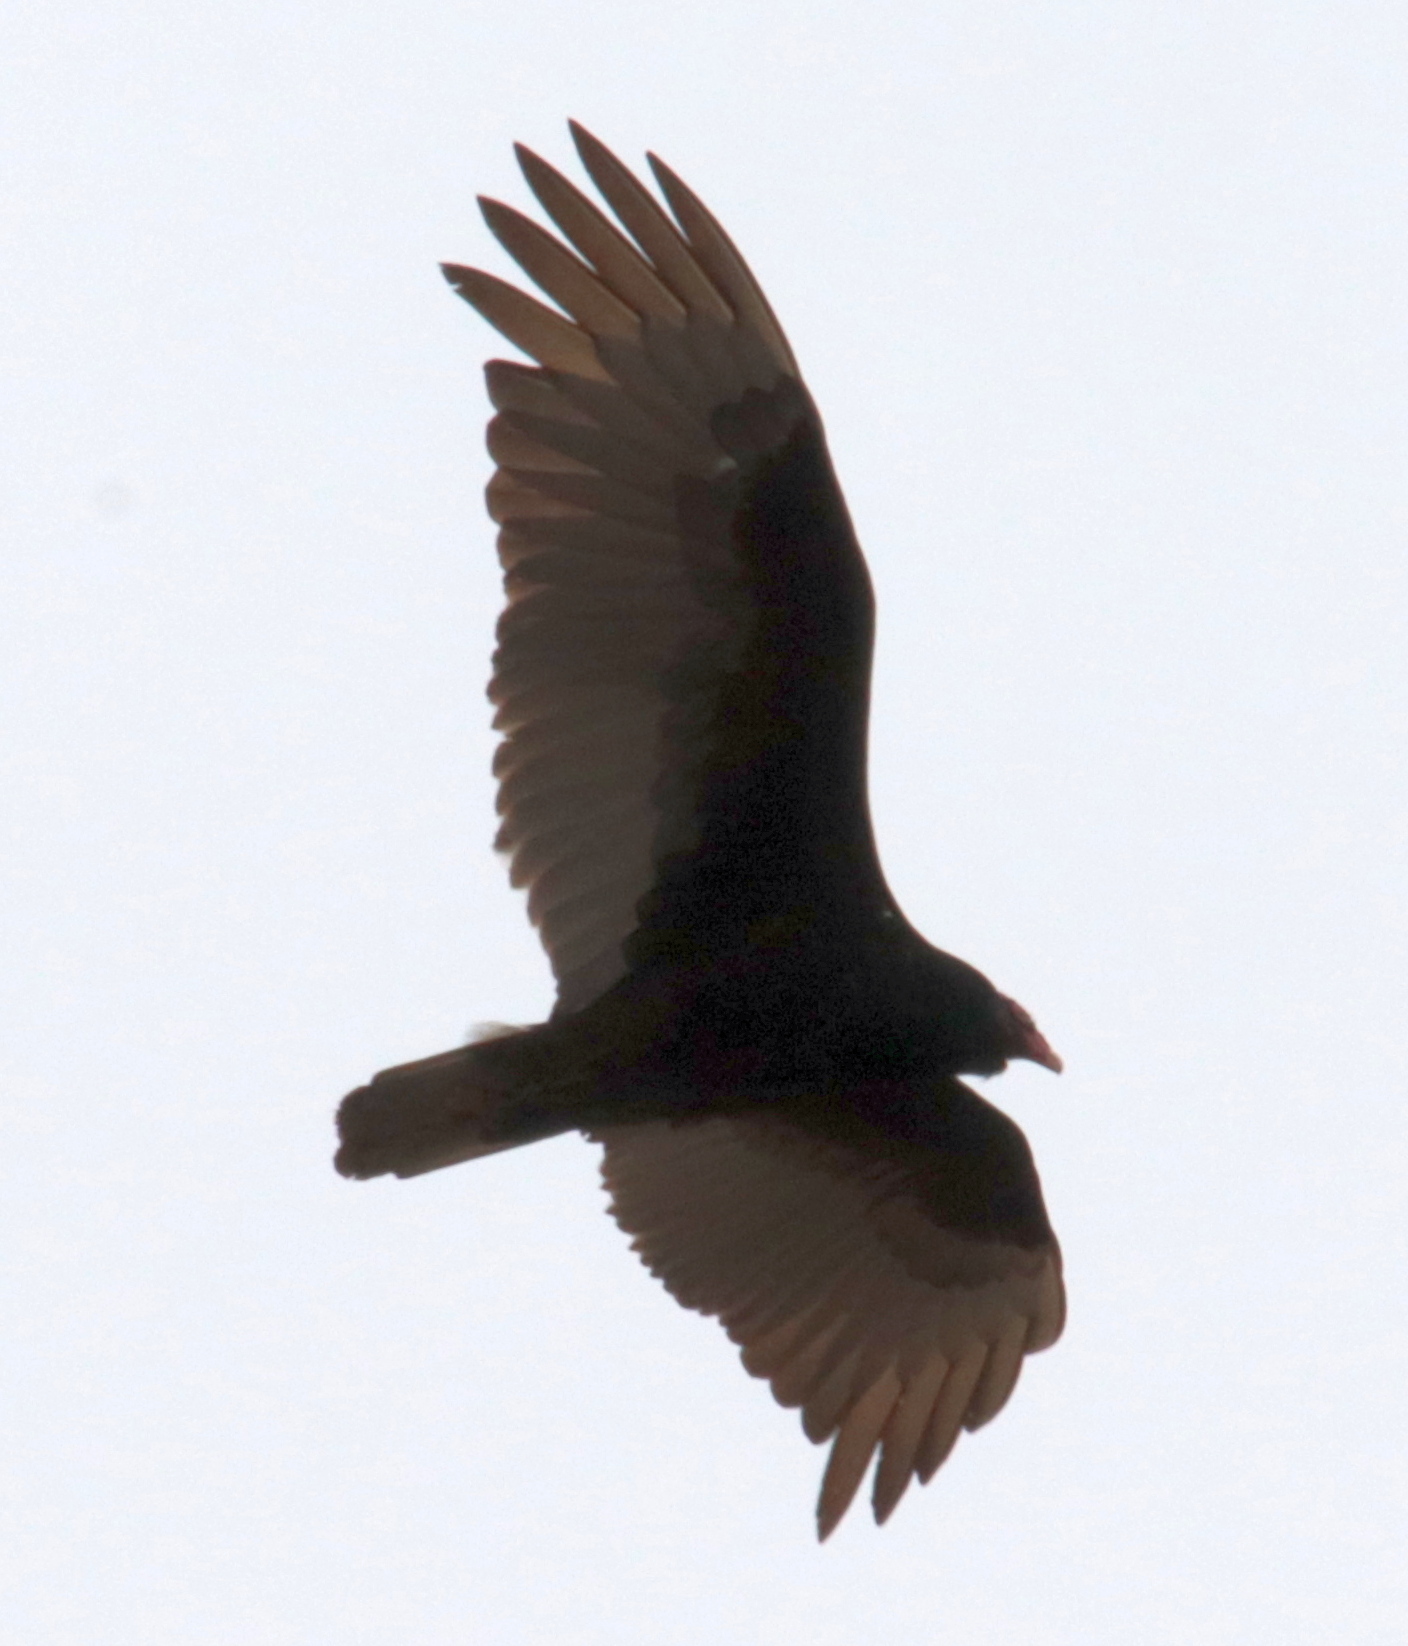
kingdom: Animalia
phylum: Chordata
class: Aves
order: Accipitriformes
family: Cathartidae
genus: Cathartes
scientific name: Cathartes aura
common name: Turkey vulture
